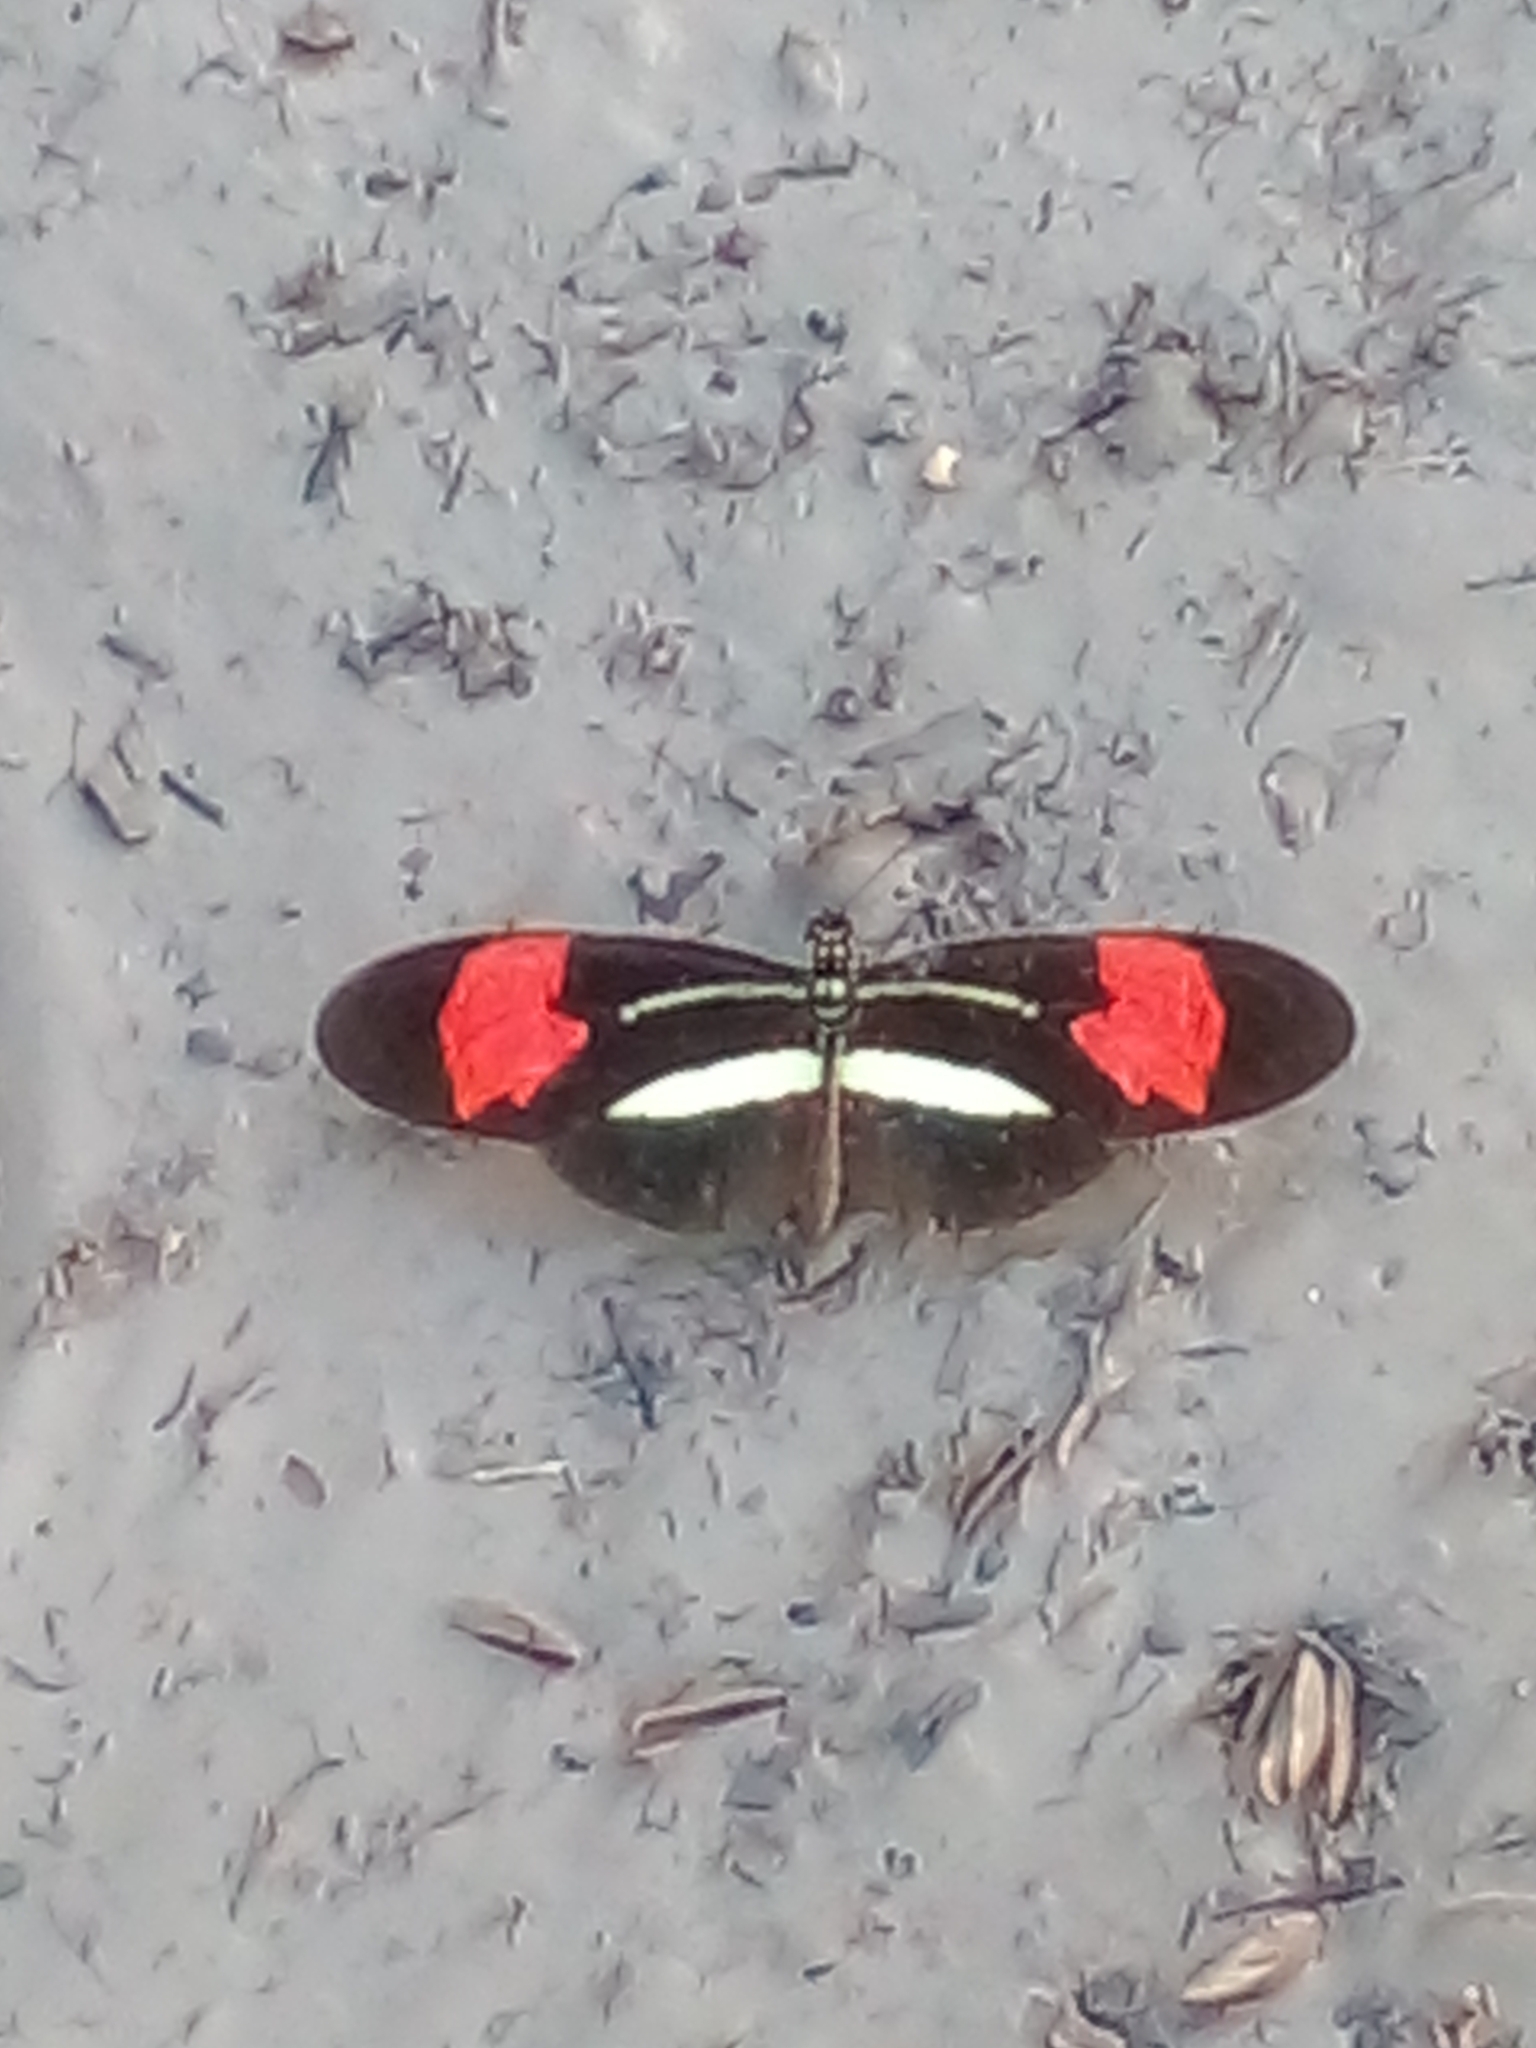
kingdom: Animalia
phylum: Arthropoda
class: Insecta
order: Lepidoptera
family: Nymphalidae
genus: Heliconius
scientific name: Heliconius erato
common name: Common patch longwing
